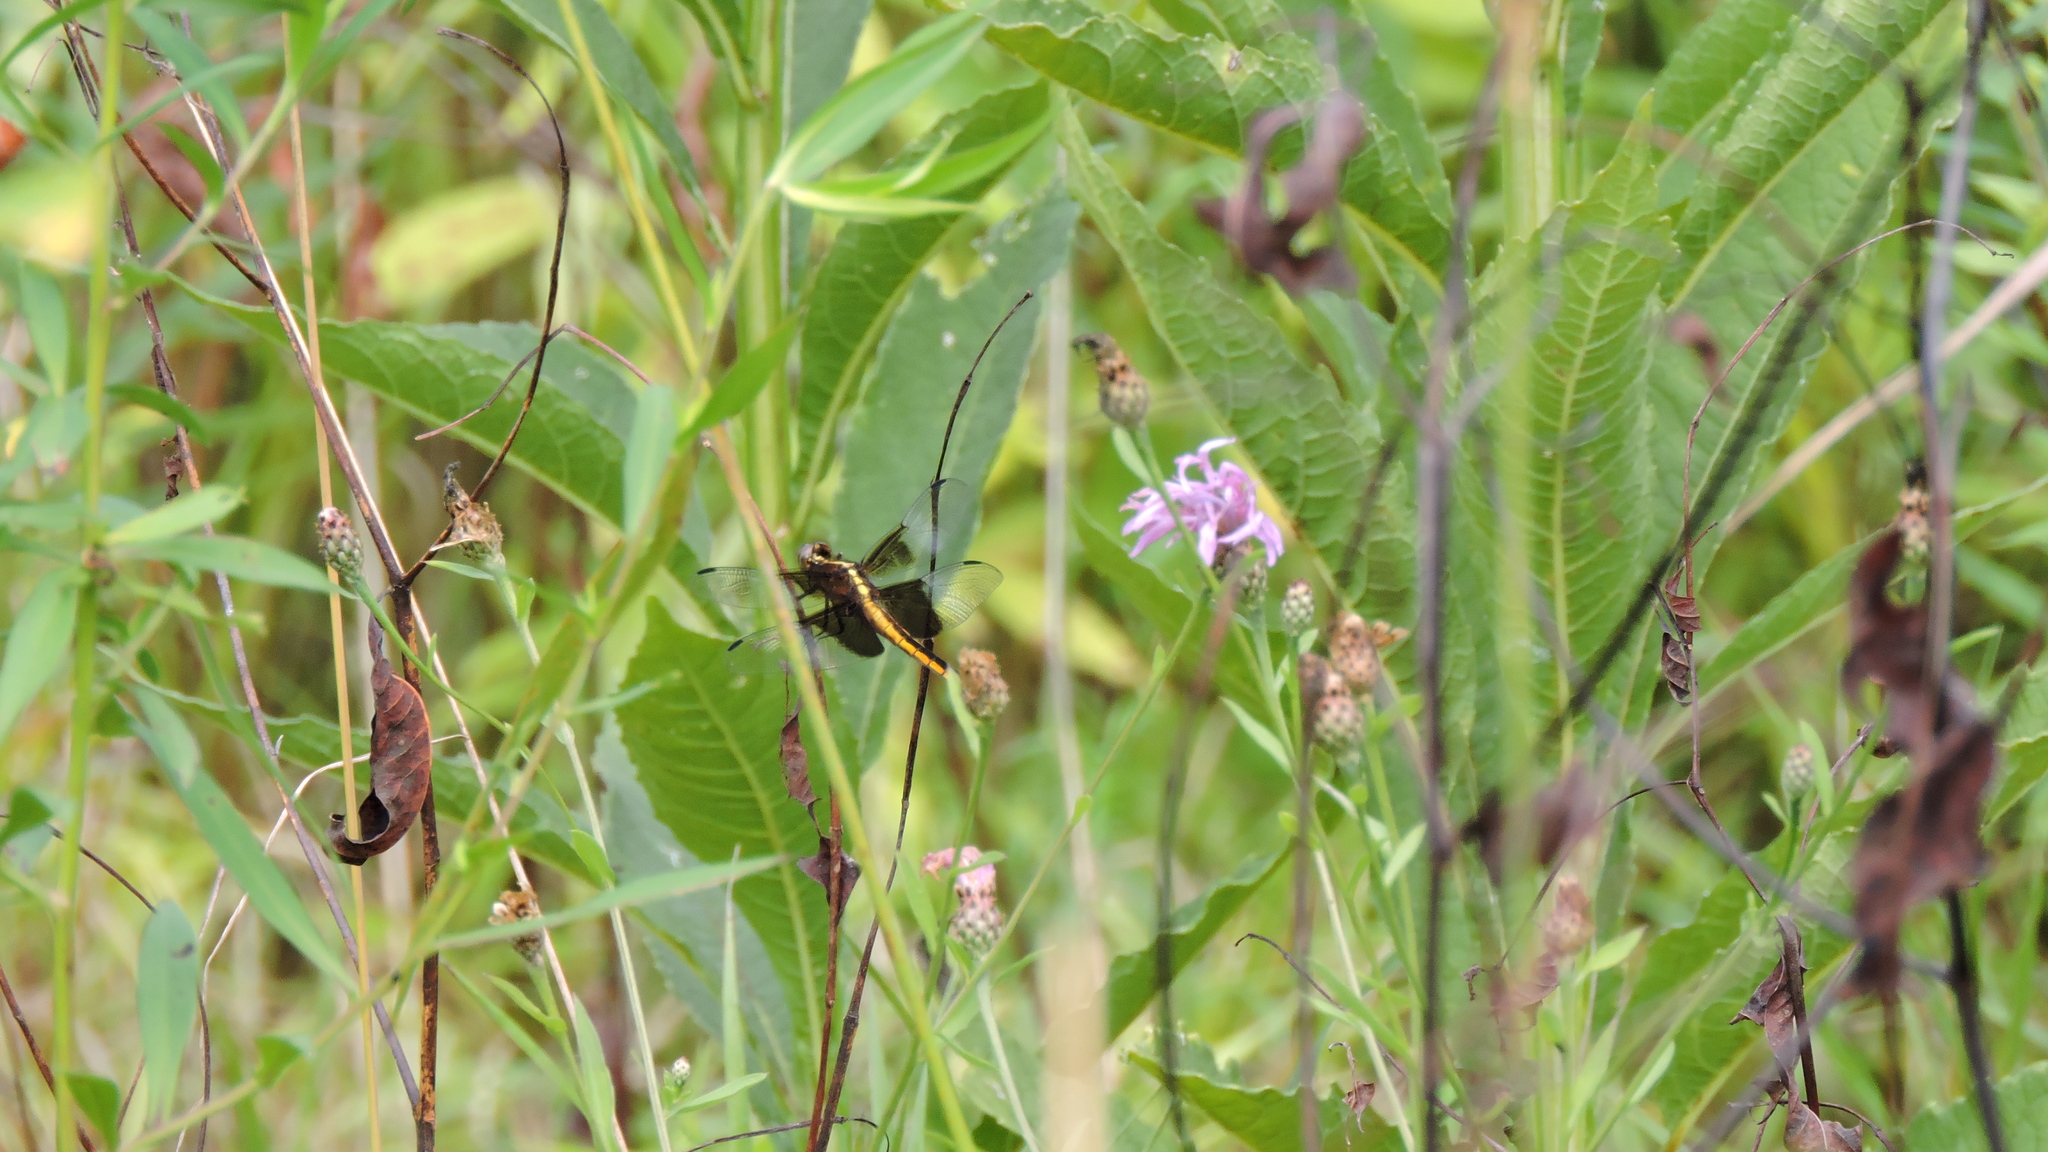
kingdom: Animalia
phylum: Arthropoda
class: Insecta
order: Odonata
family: Libellulidae
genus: Libellula
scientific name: Libellula luctuosa
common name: Widow skimmer
